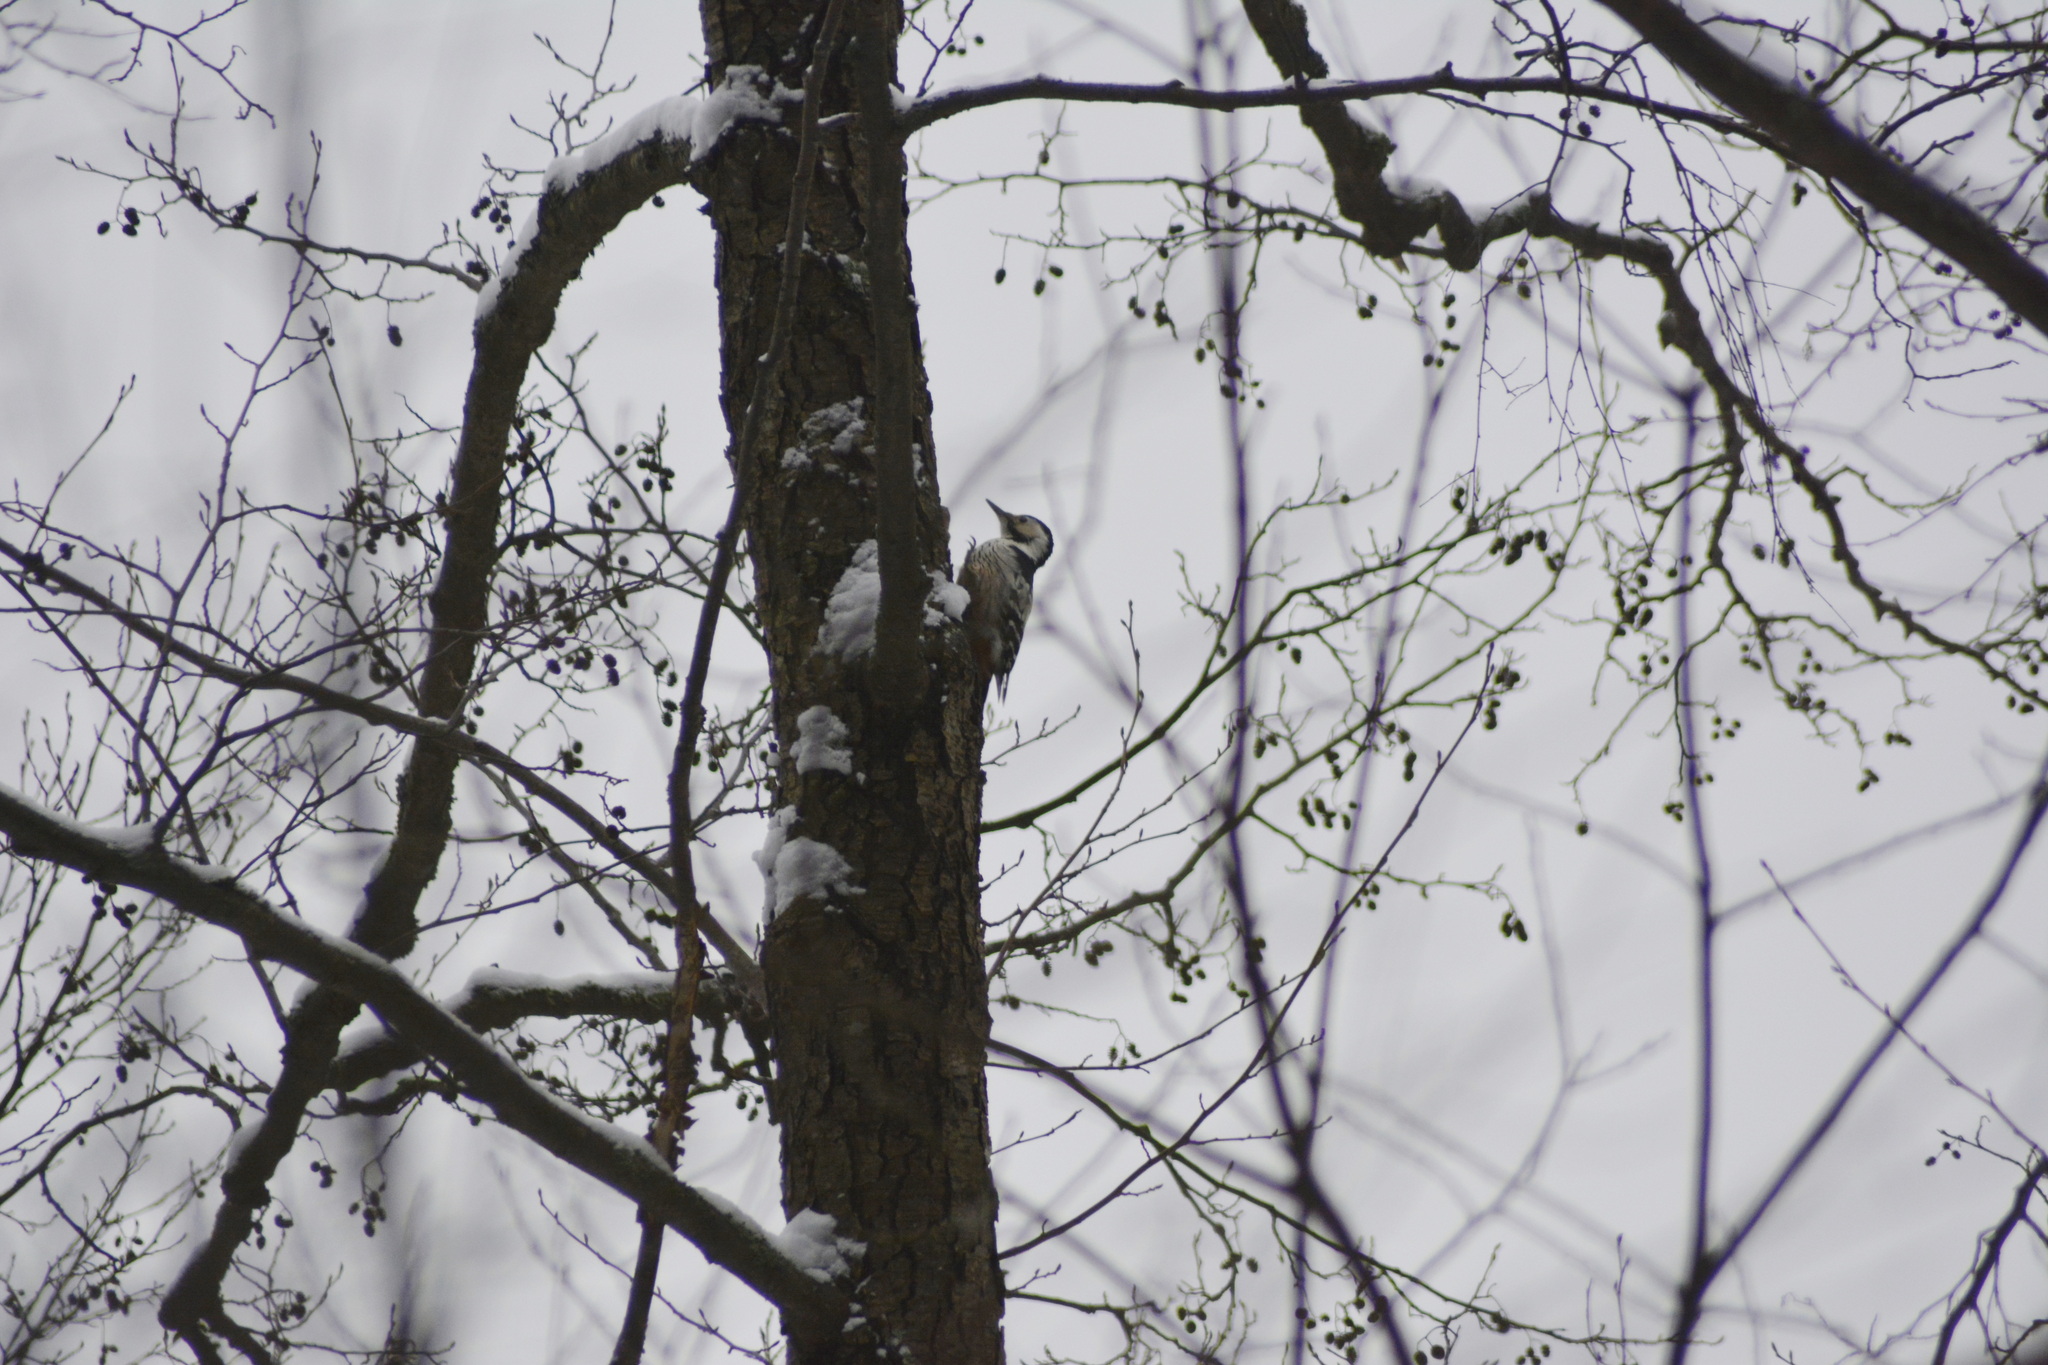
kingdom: Animalia
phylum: Chordata
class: Aves
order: Piciformes
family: Picidae
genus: Dendrocopos
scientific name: Dendrocopos leucotos
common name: White-backed woodpecker
